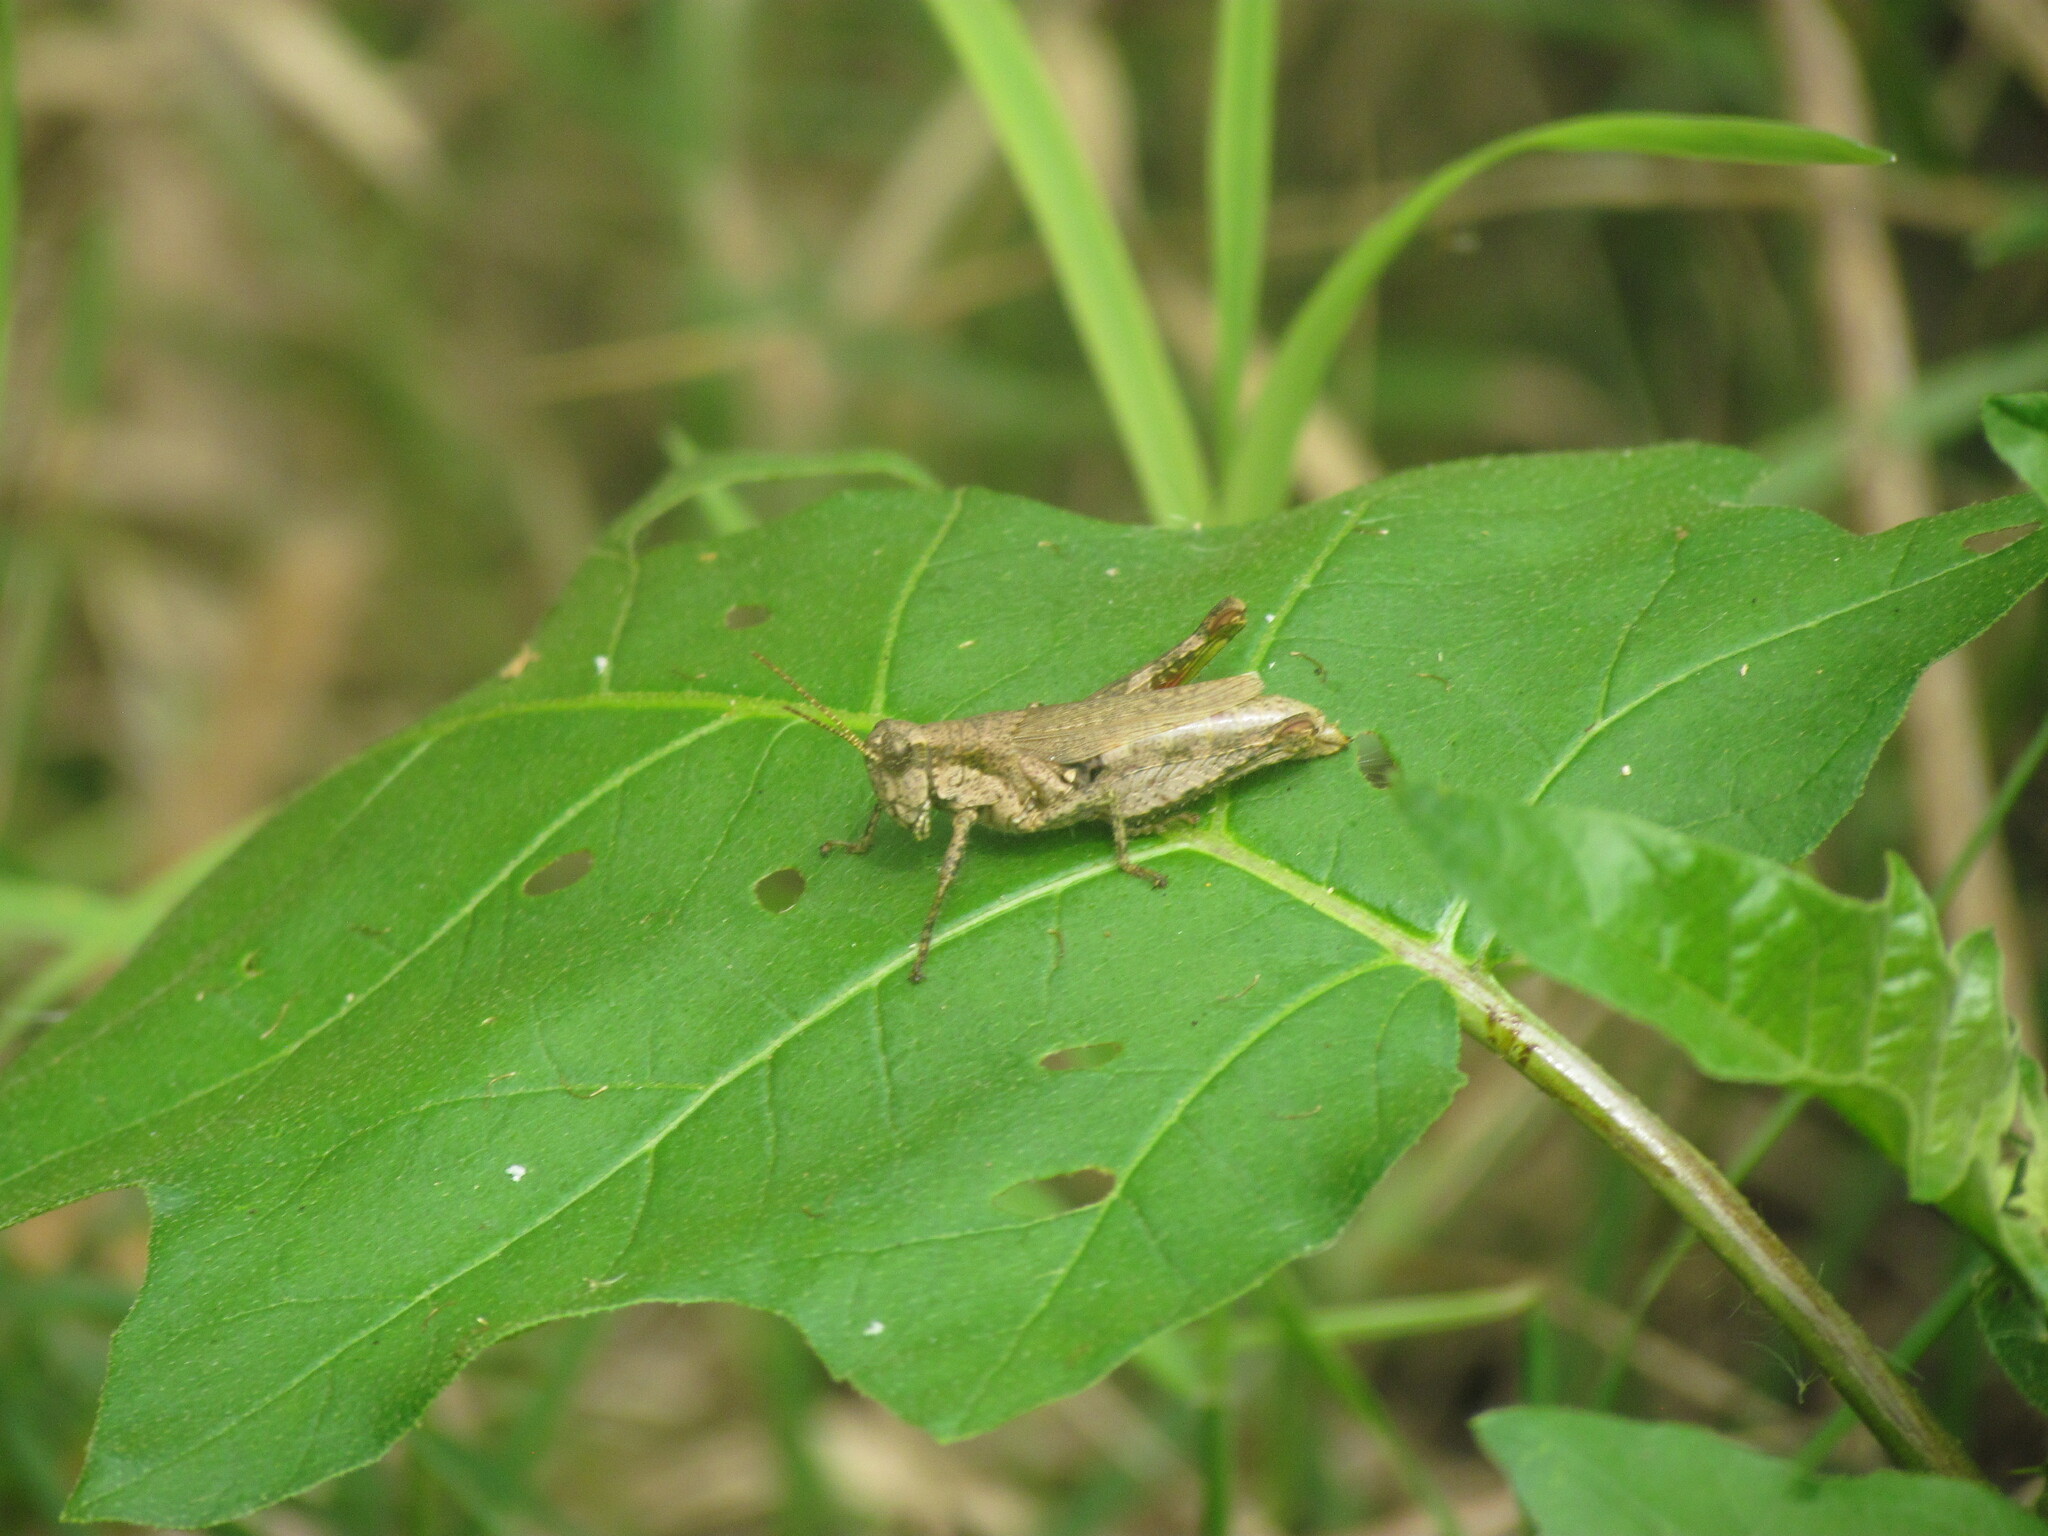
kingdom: Animalia
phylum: Arthropoda
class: Insecta
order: Orthoptera
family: Acrididae
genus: Ronderosia
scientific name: Ronderosia bergii
